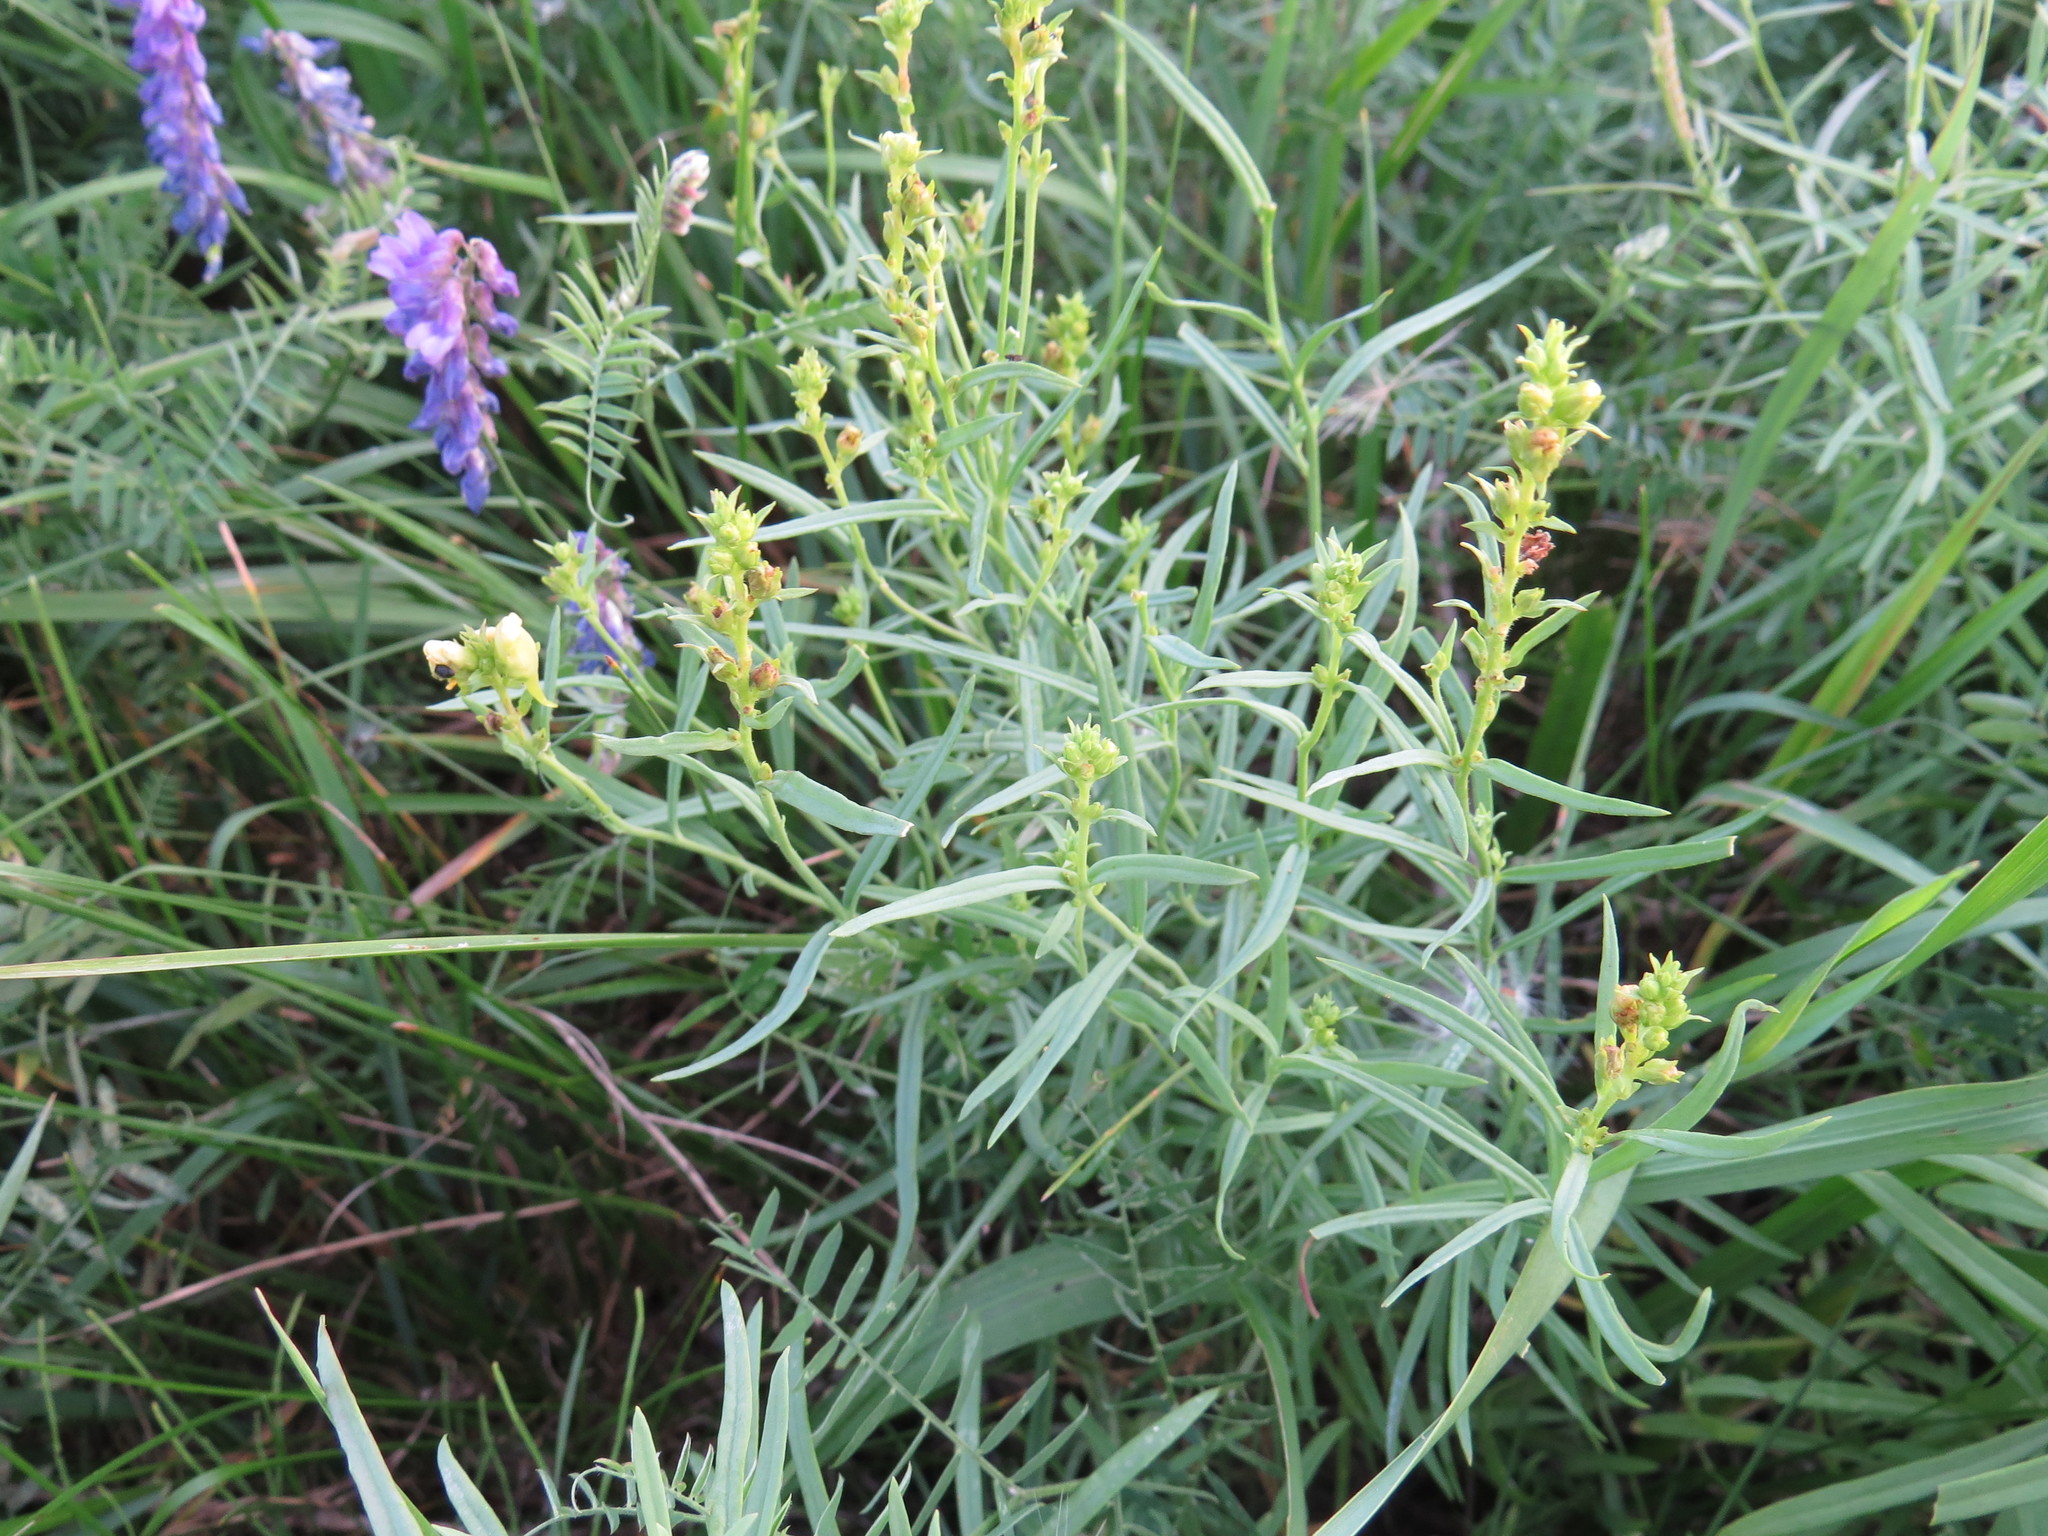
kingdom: Plantae
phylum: Tracheophyta
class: Magnoliopsida
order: Lamiales
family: Plantaginaceae
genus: Linaria
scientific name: Linaria vulgaris
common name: Butter and eggs
